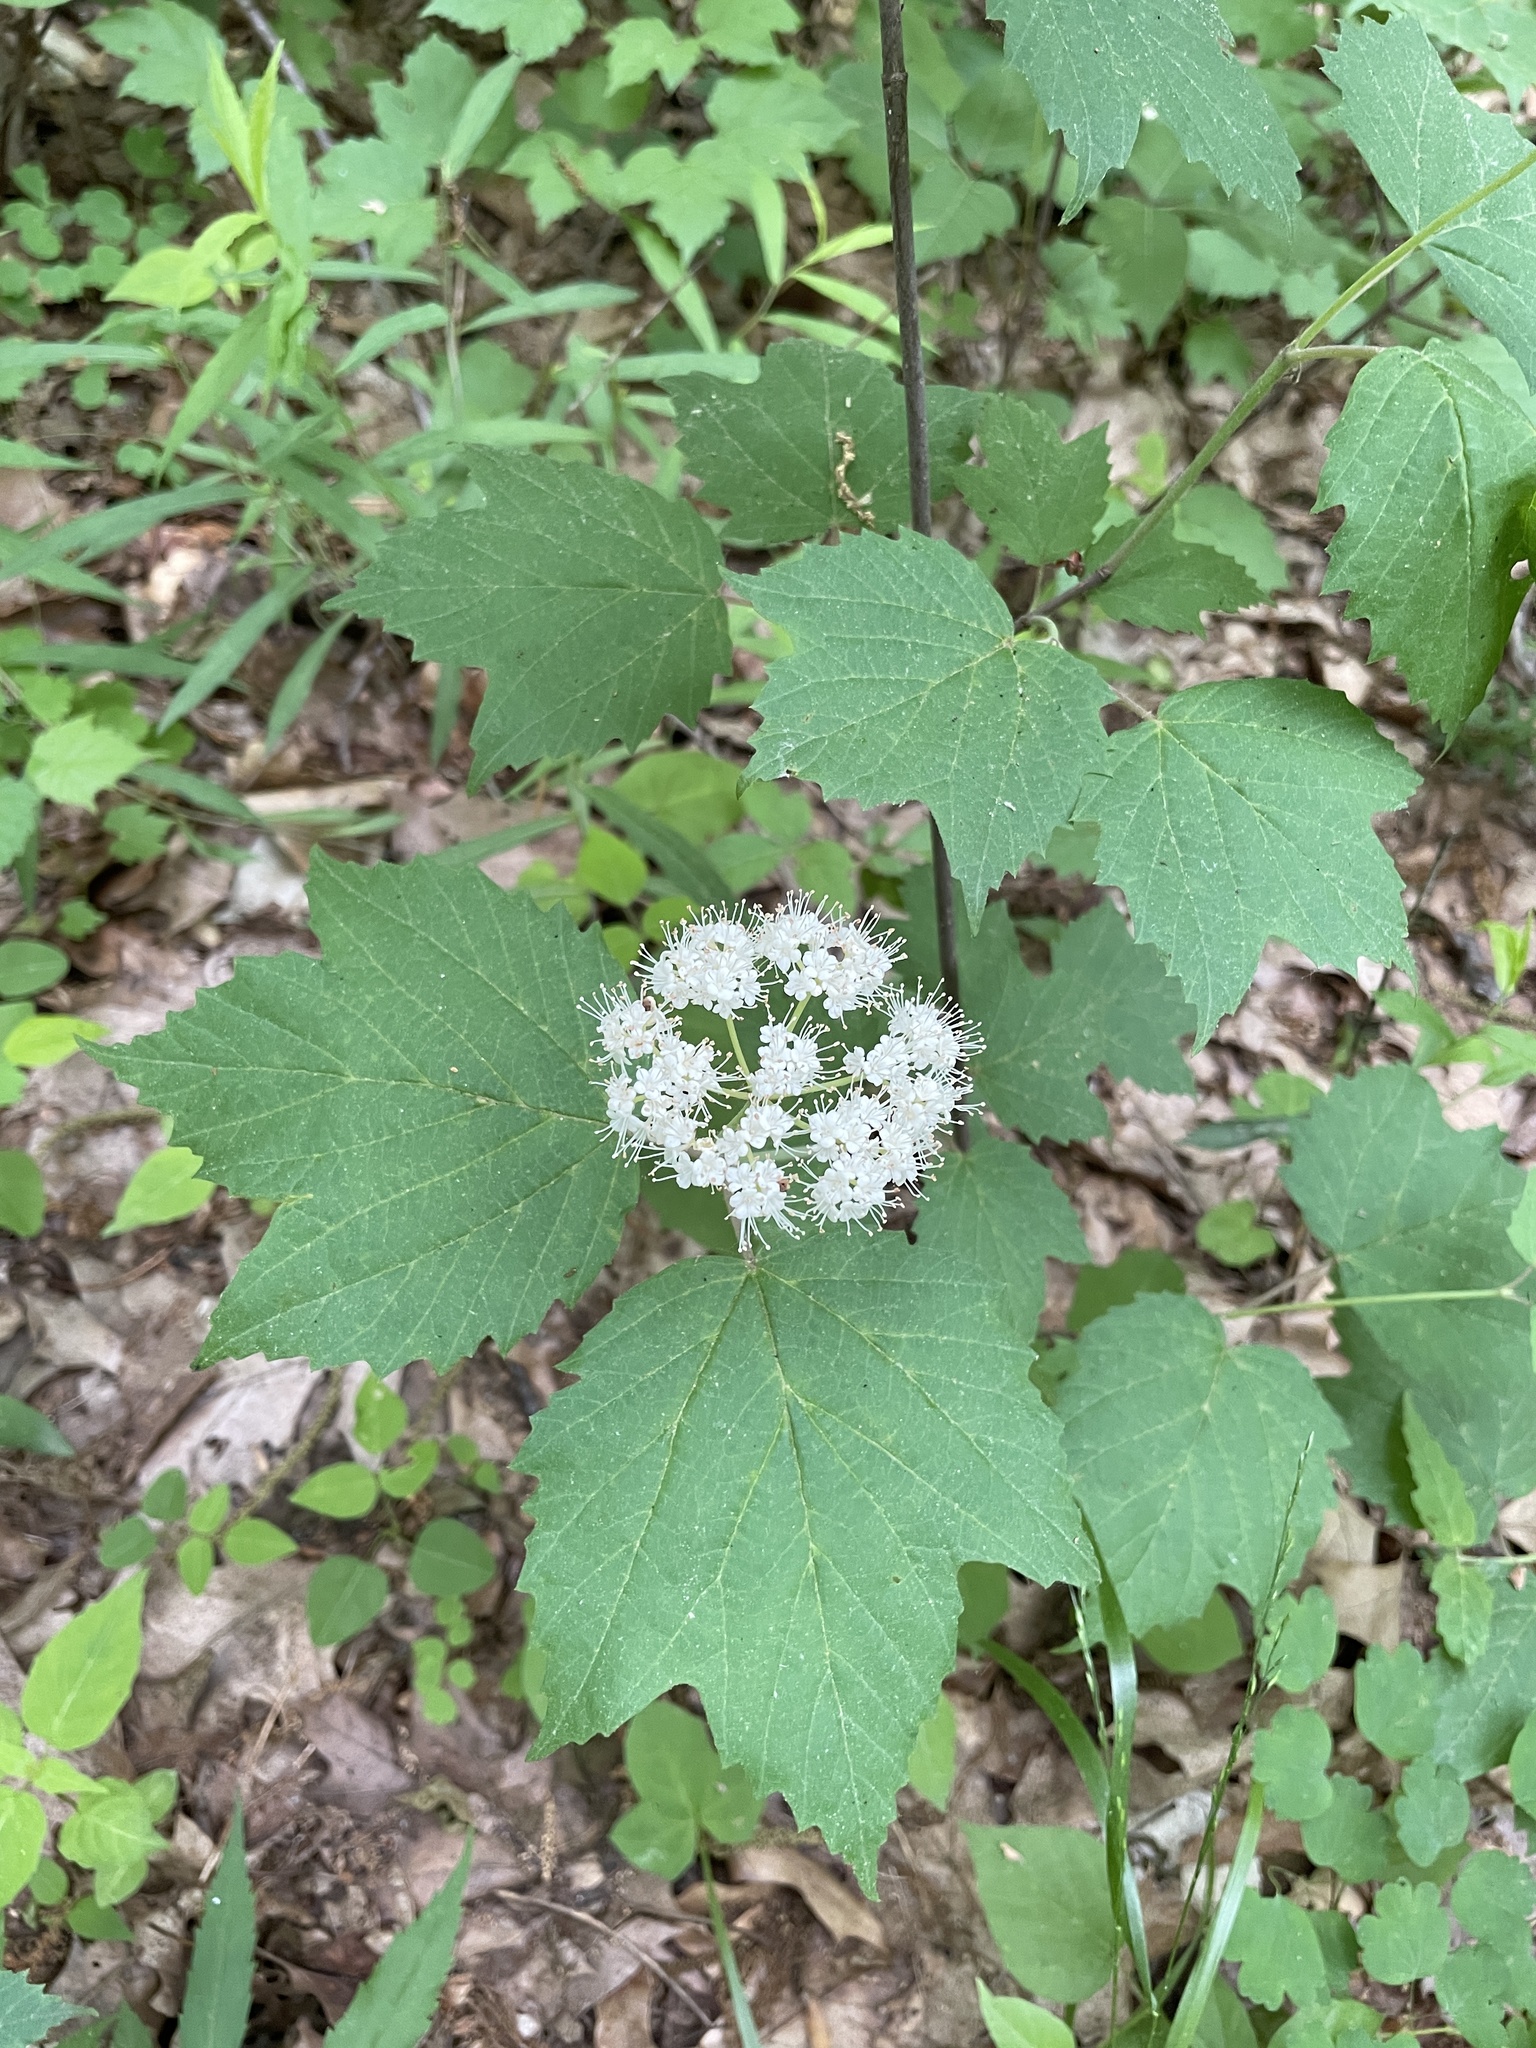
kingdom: Plantae
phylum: Tracheophyta
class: Magnoliopsida
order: Dipsacales
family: Viburnaceae
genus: Viburnum
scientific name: Viburnum acerifolium
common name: Dockmackie
